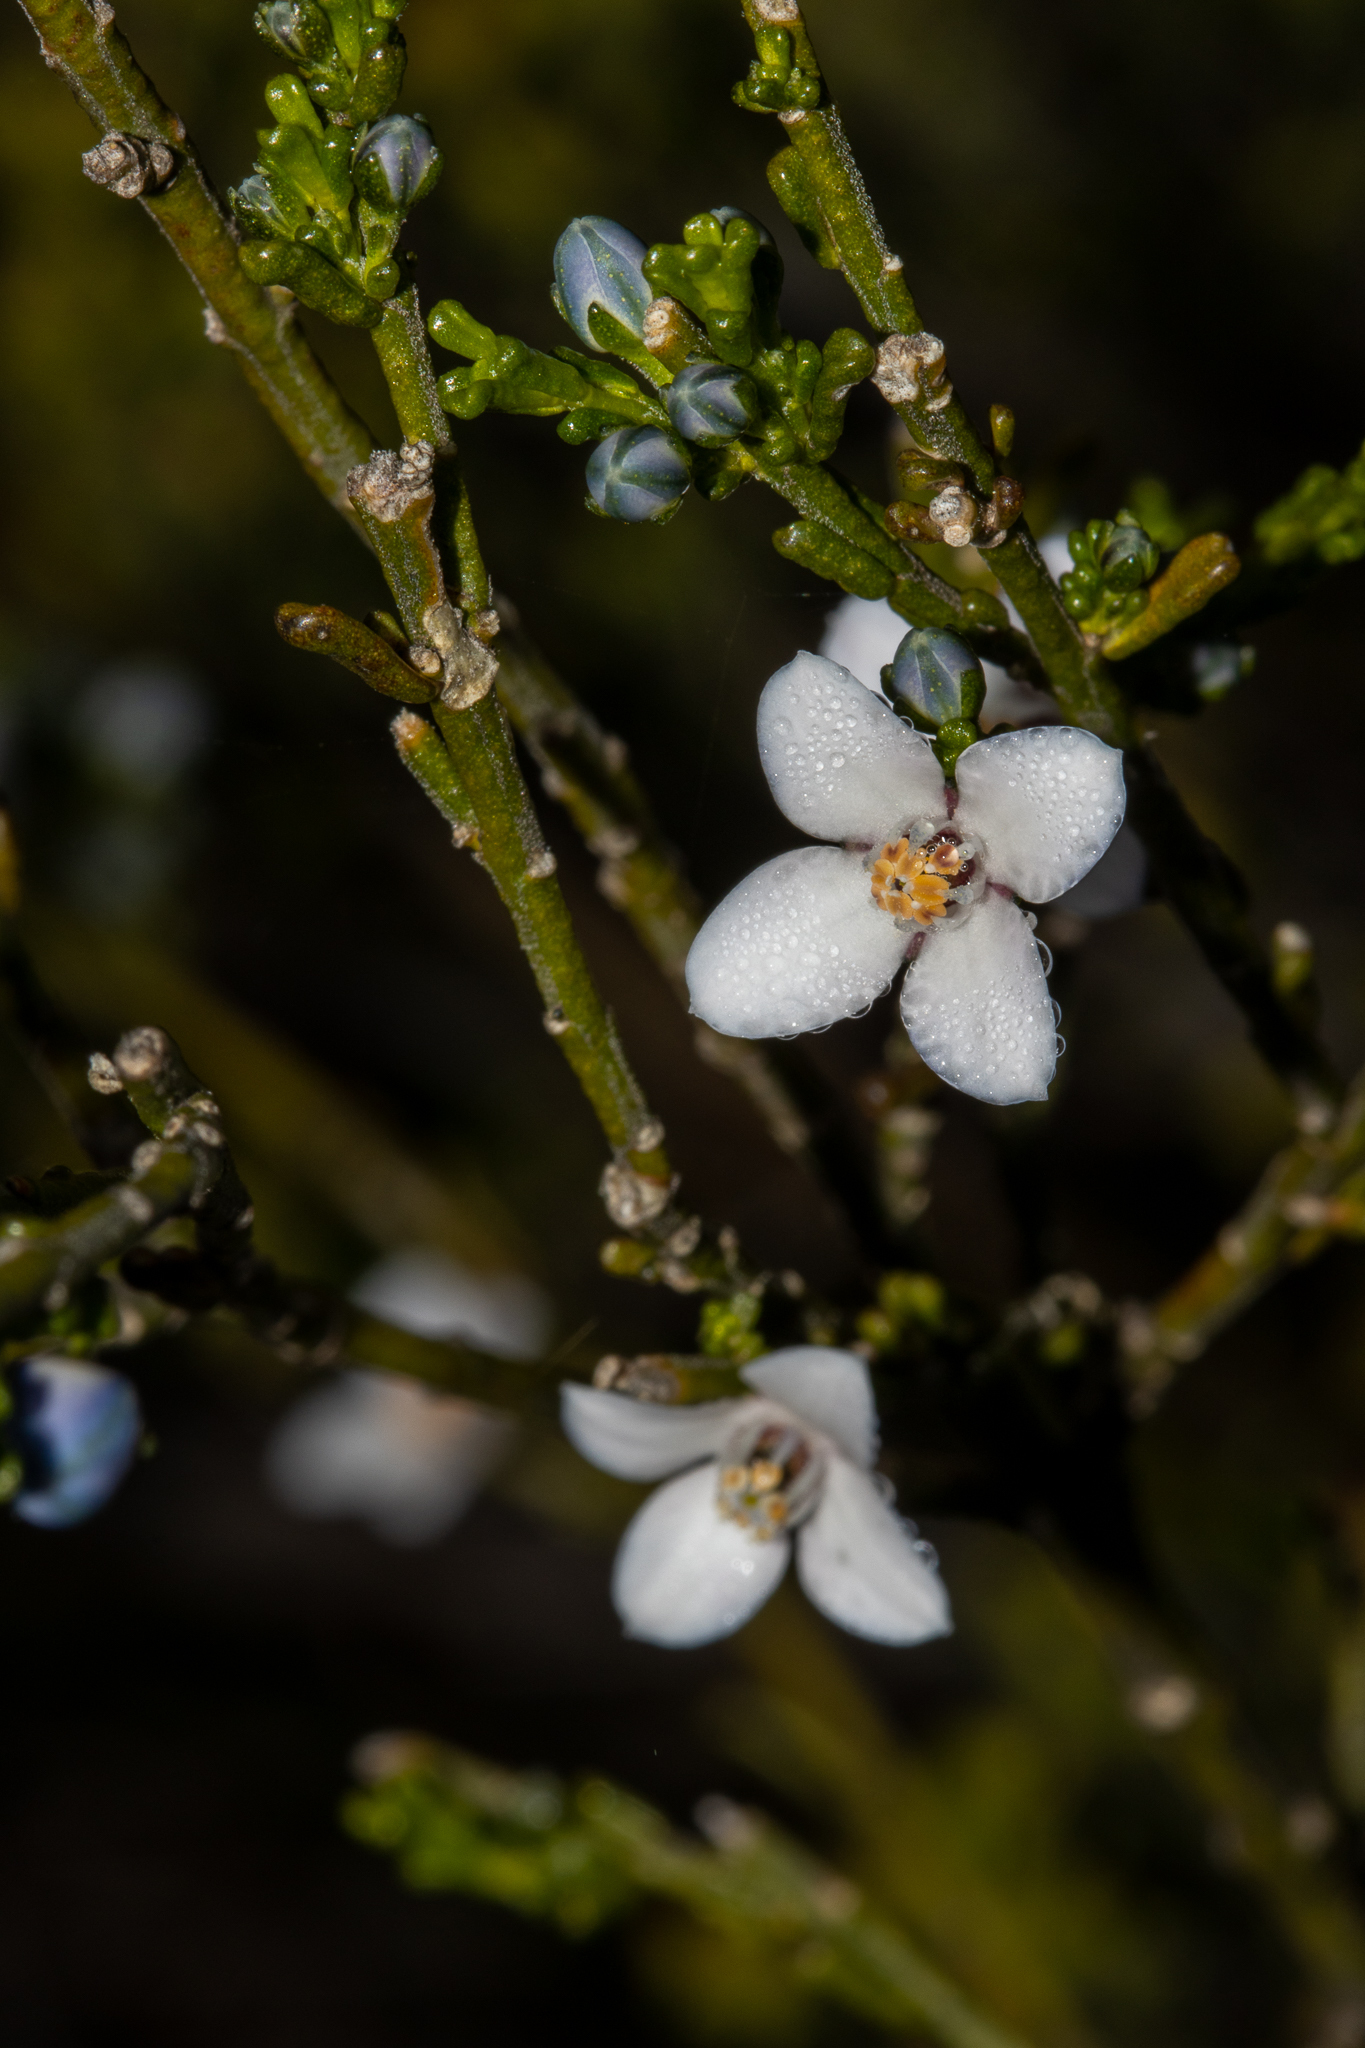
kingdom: Plantae
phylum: Tracheophyta
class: Magnoliopsida
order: Sapindales
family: Rutaceae
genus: Cyanothamnus
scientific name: Cyanothamnus coerulescens
